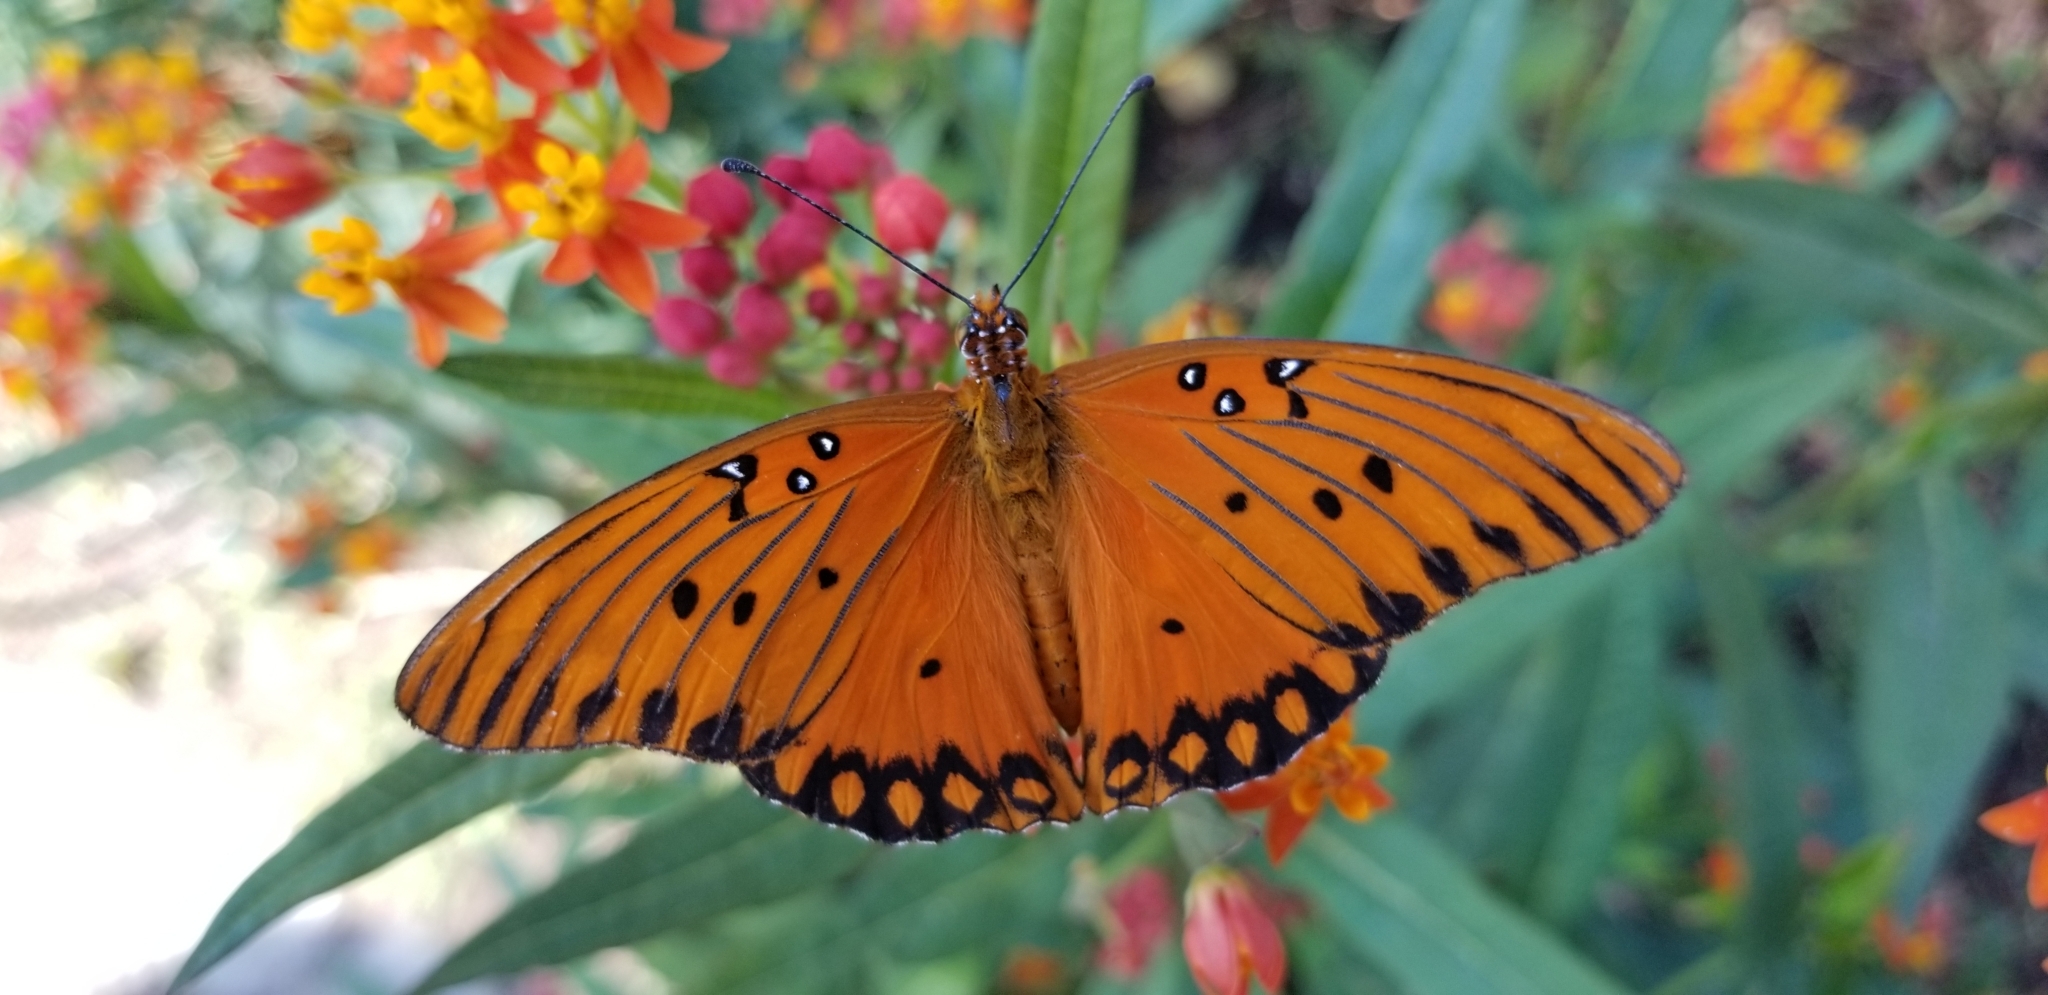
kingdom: Animalia
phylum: Arthropoda
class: Insecta
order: Lepidoptera
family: Nymphalidae
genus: Dione
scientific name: Dione vanillae
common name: Gulf fritillary
